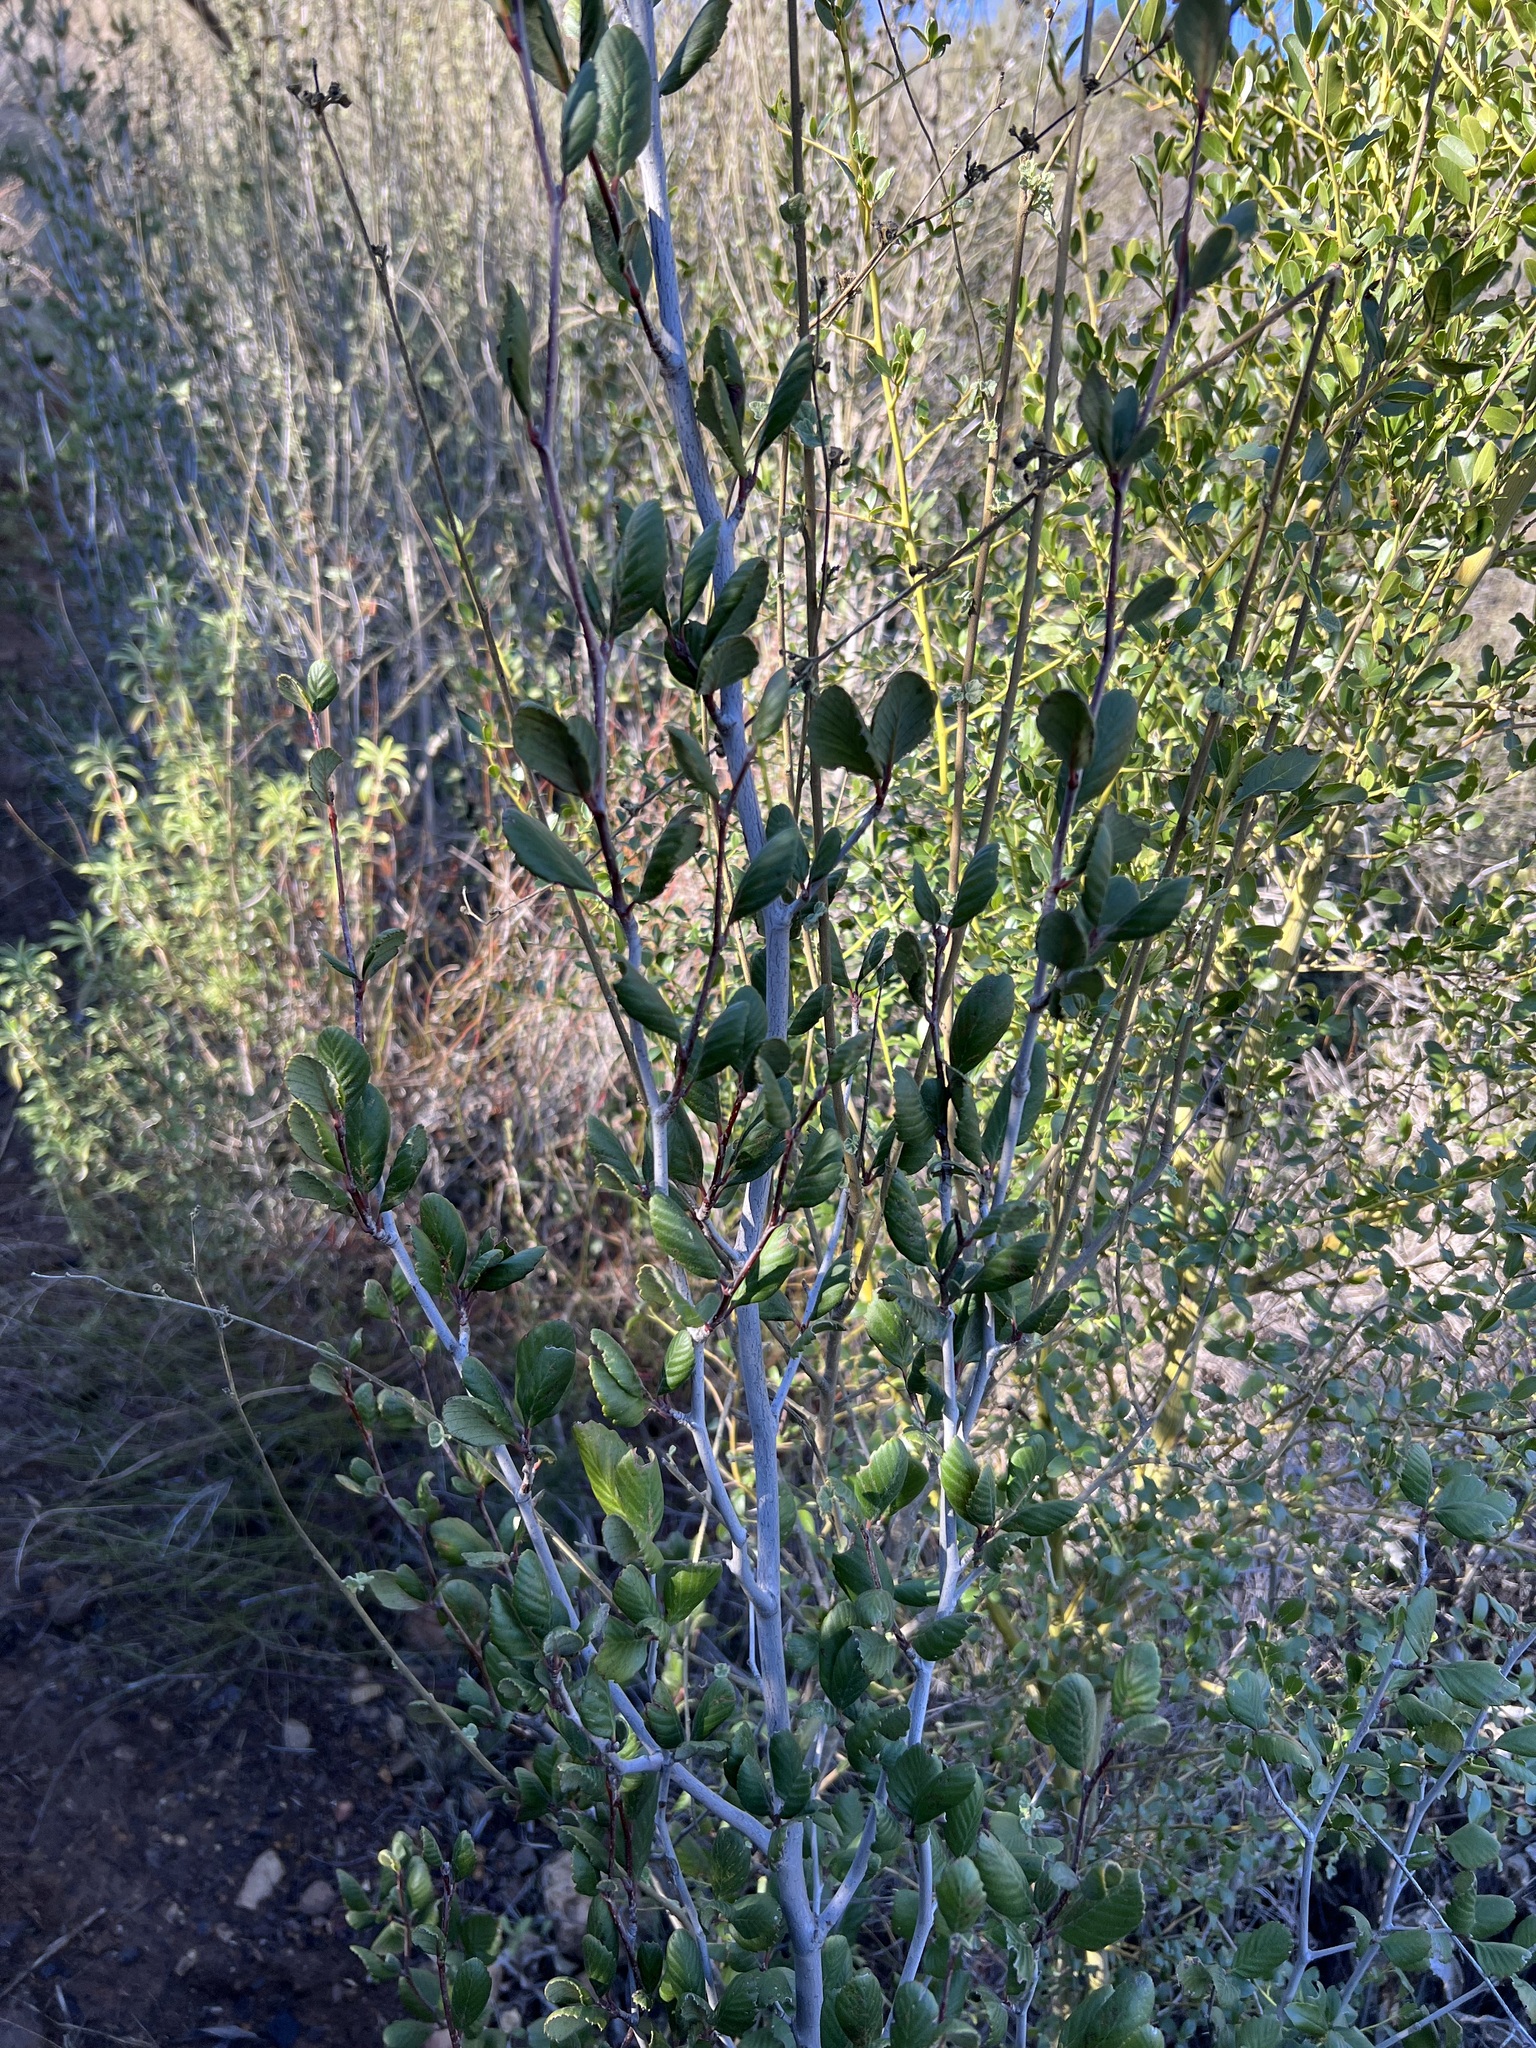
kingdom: Plantae
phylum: Tracheophyta
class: Magnoliopsida
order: Rosales
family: Rosaceae
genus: Cercocarpus
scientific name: Cercocarpus betuloides
